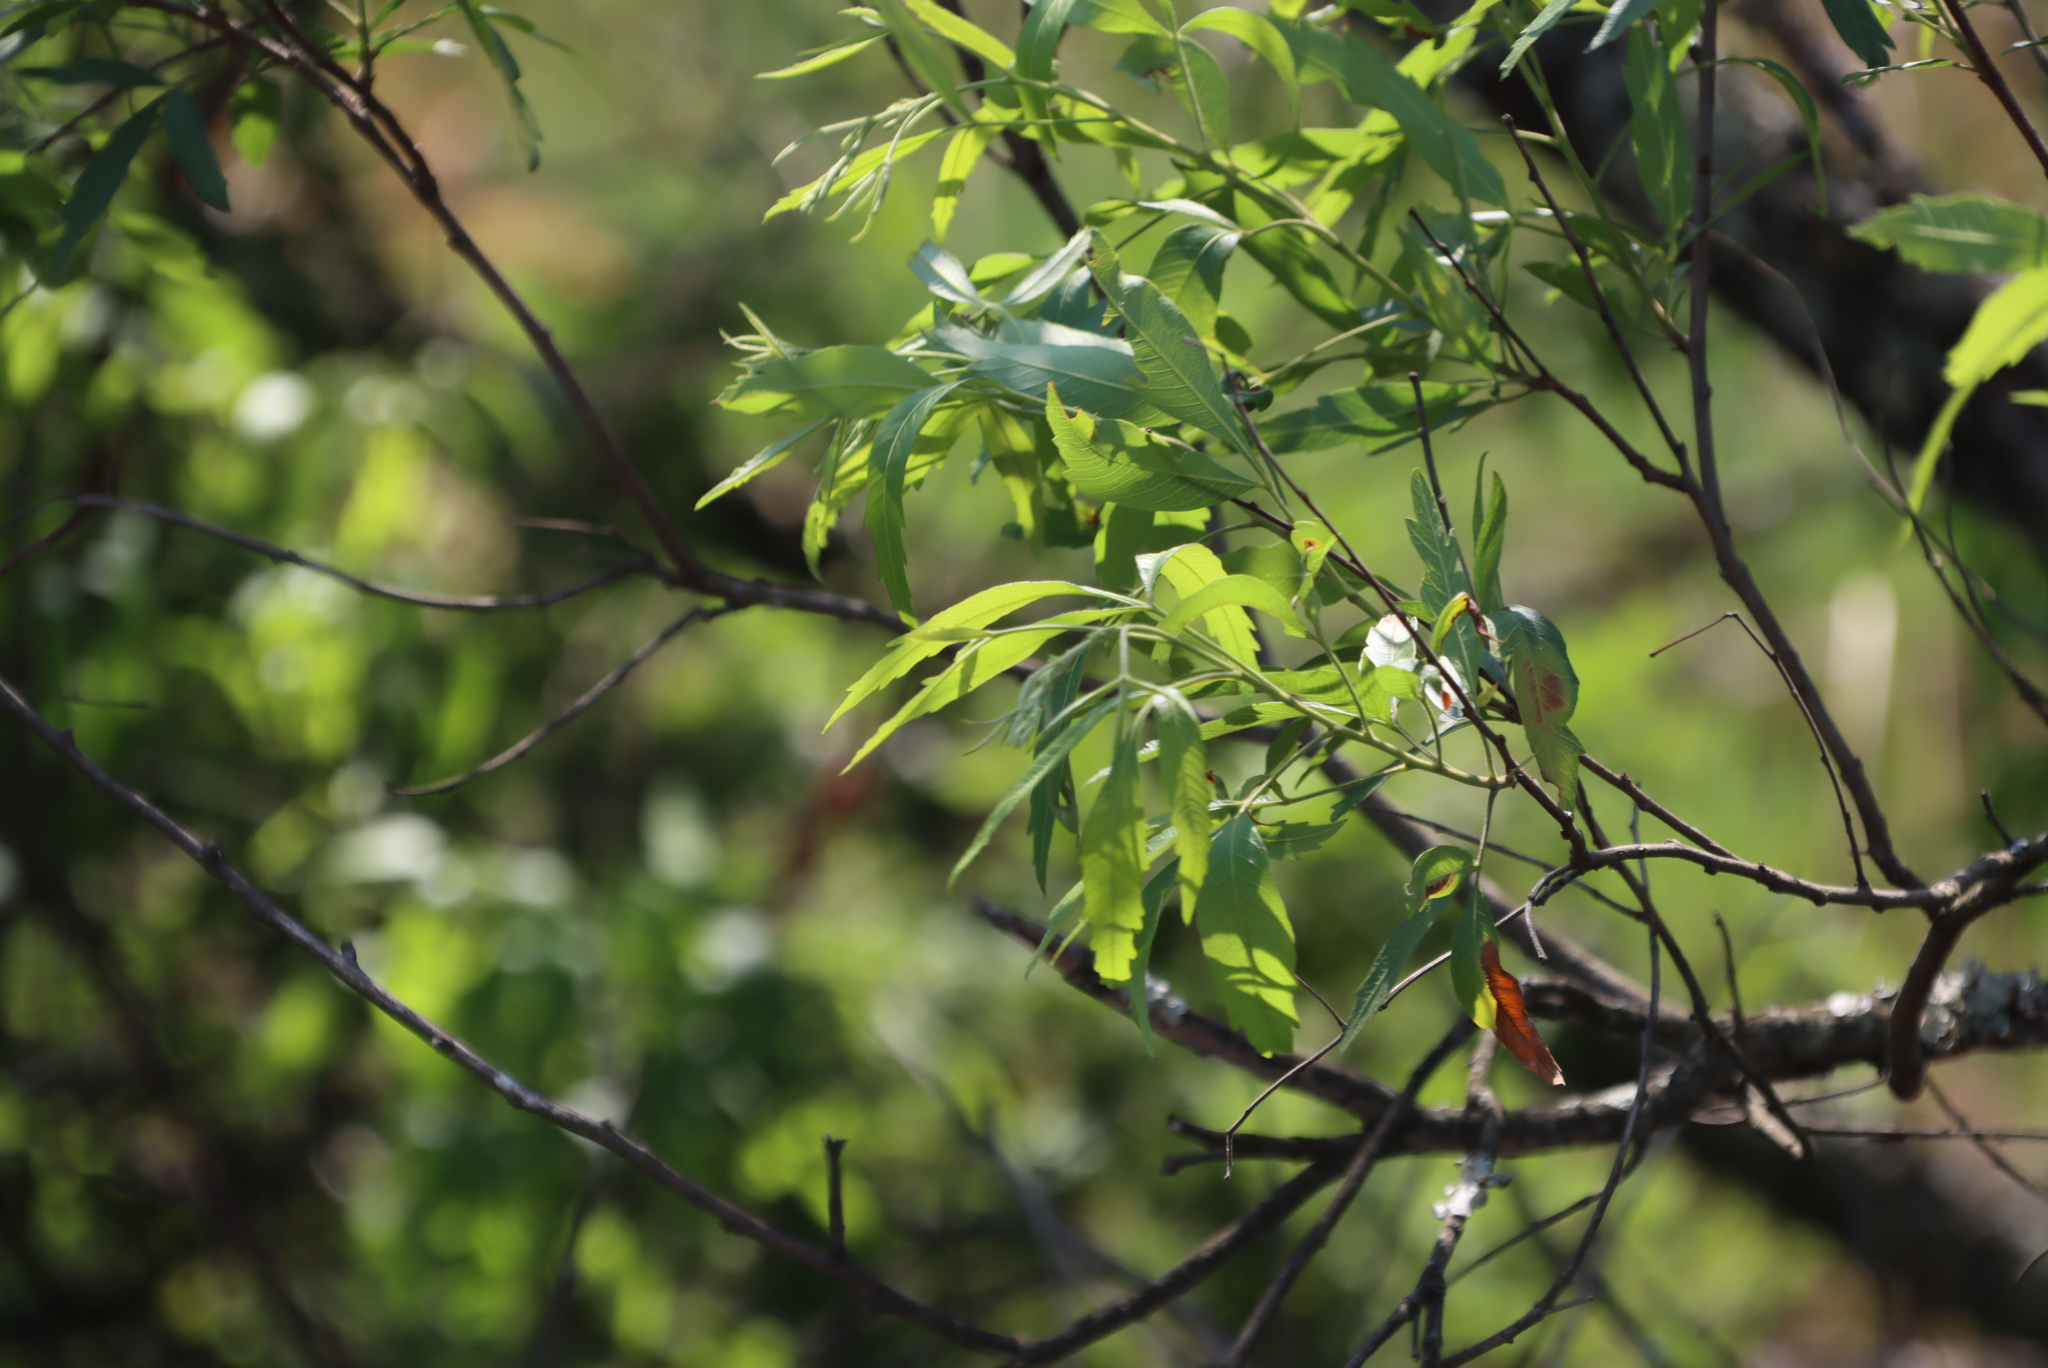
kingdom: Plantae
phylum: Tracheophyta
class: Magnoliopsida
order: Sapindales
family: Anacardiaceae
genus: Searsia
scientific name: Searsia gerrardii
